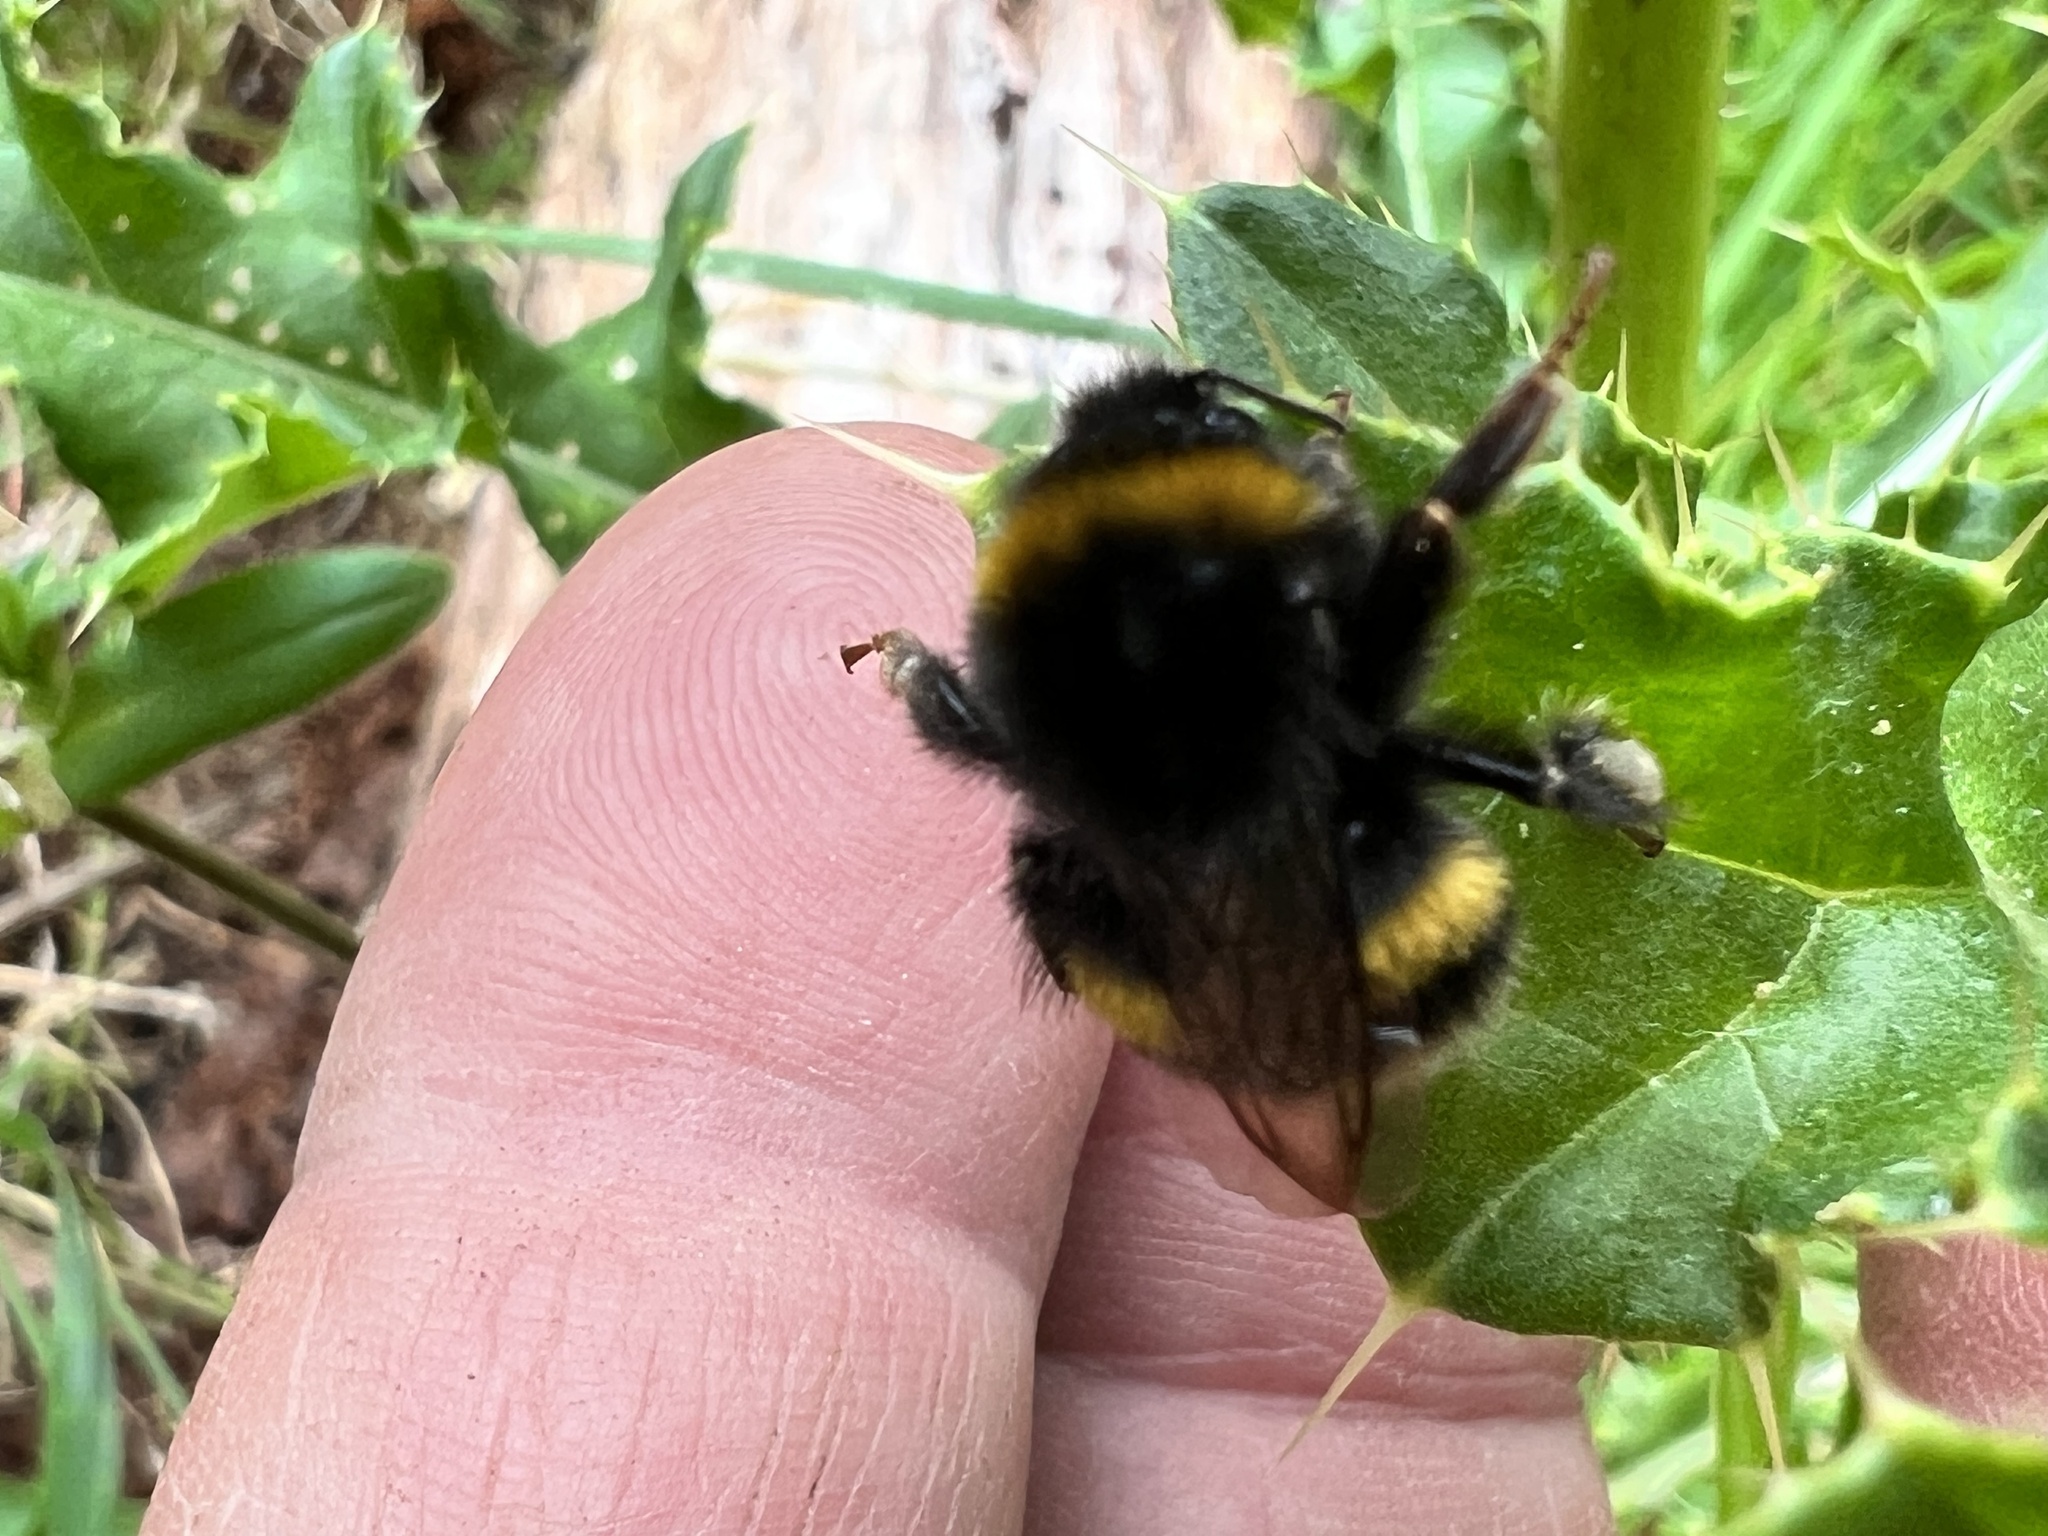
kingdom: Animalia
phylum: Arthropoda
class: Insecta
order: Hymenoptera
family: Apidae
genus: Bombus
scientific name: Bombus terrestris
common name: Buff-tailed bumblebee
